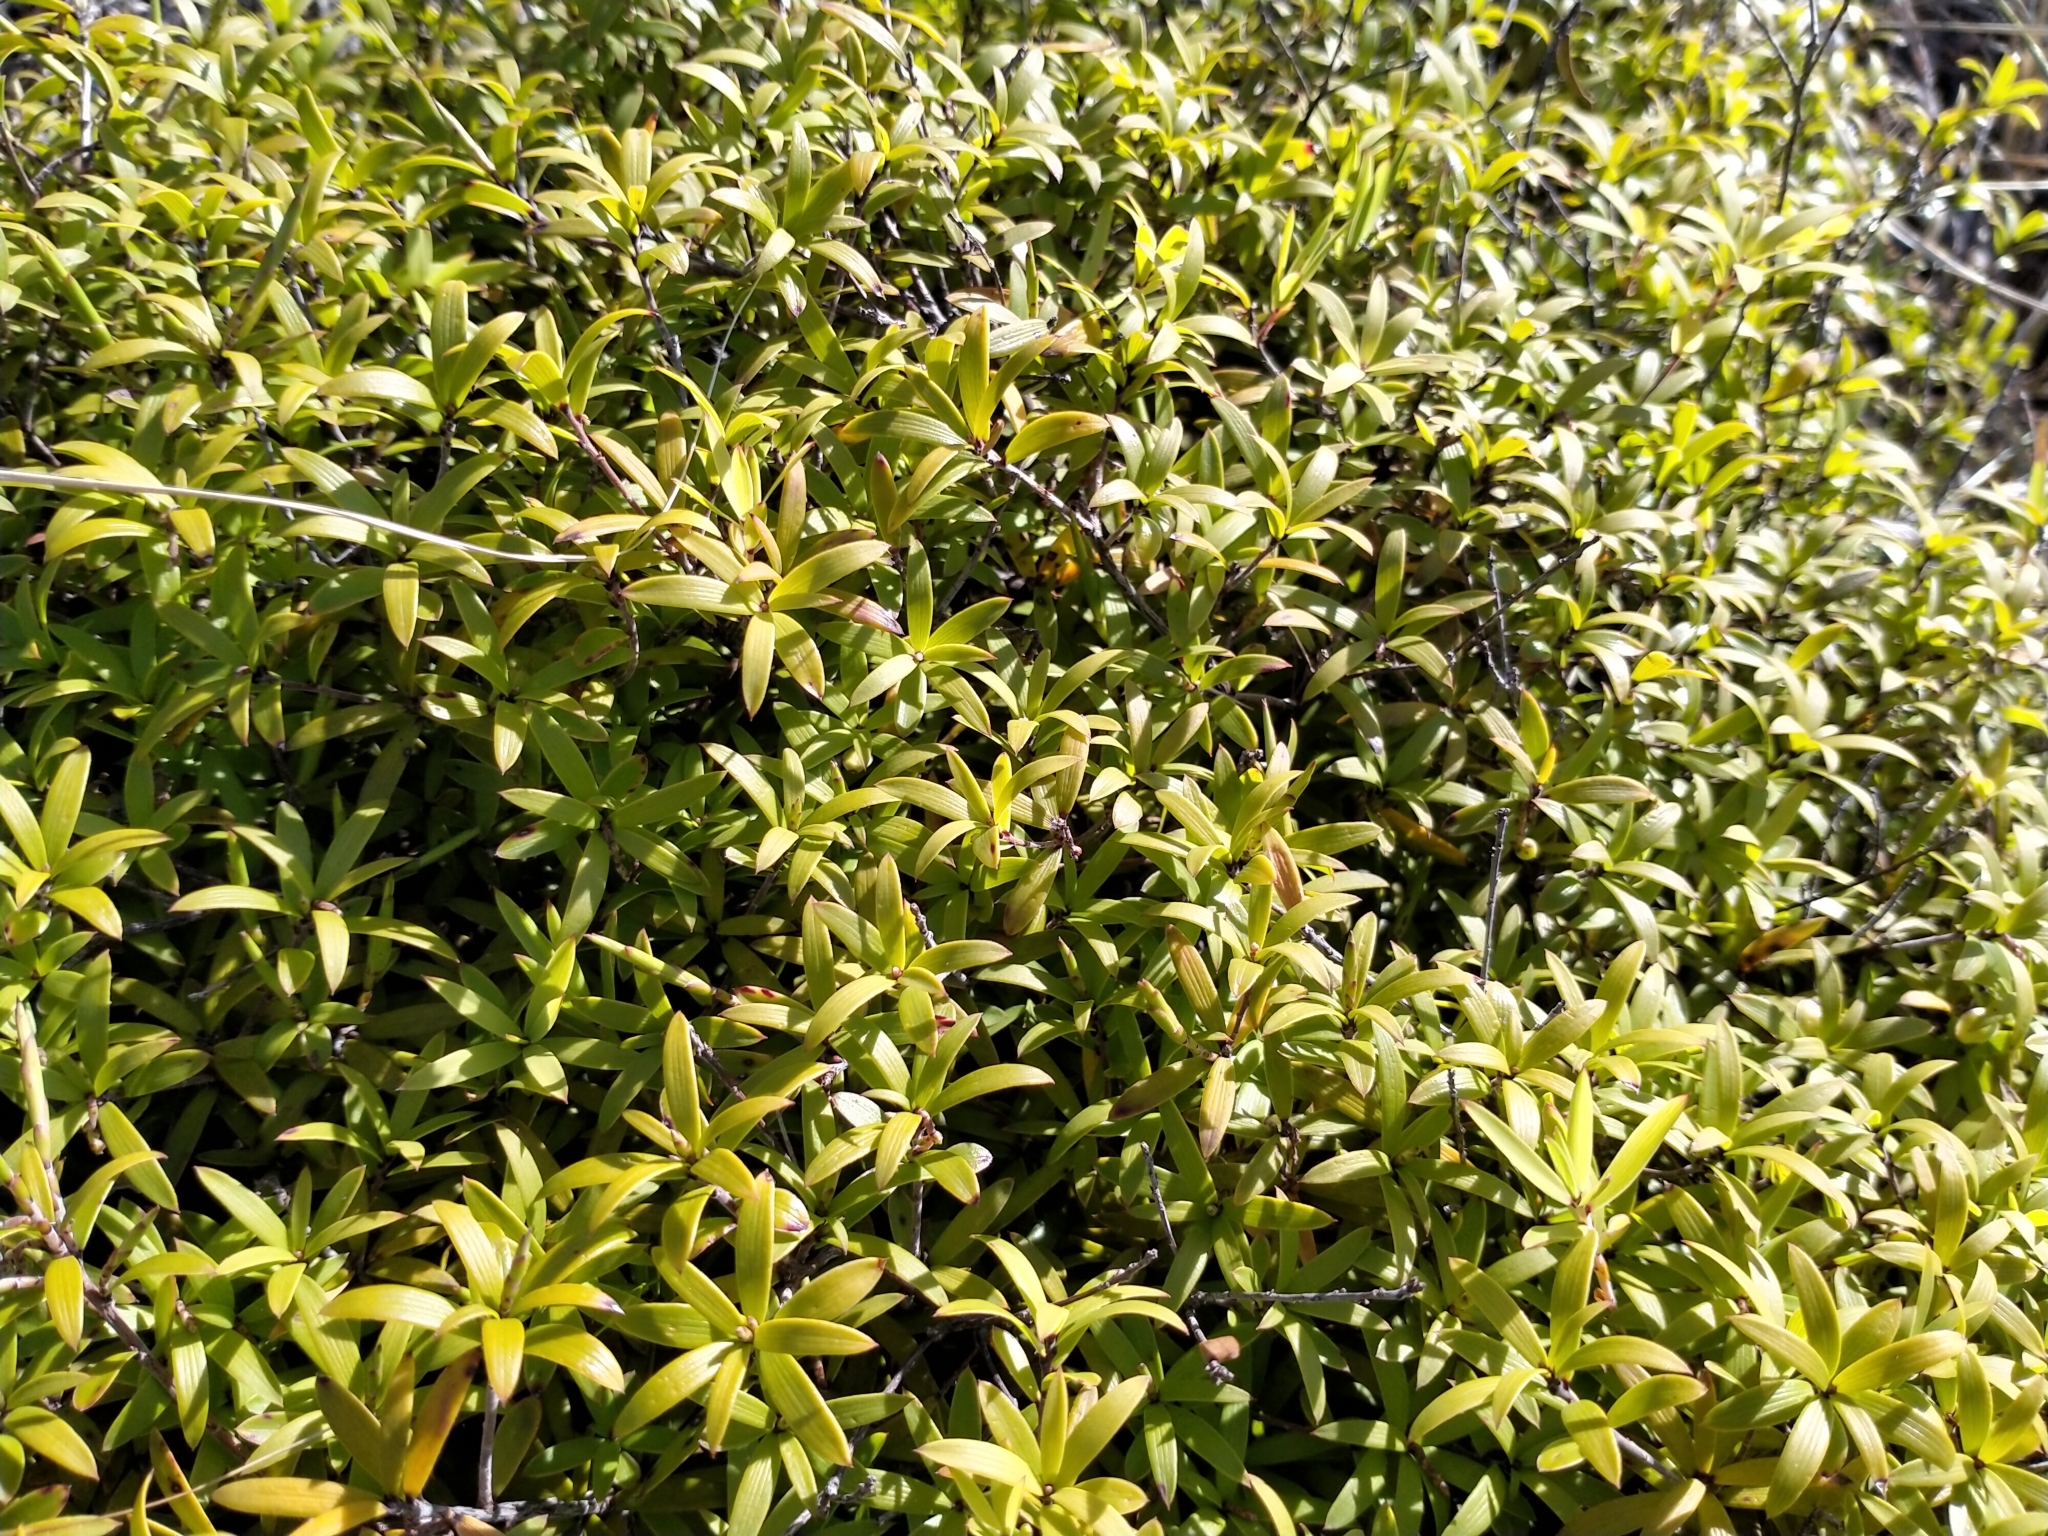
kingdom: Plantae
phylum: Tracheophyta
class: Magnoliopsida
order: Ericales
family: Ericaceae
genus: Leucopogon
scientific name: Leucopogon fasciculatus
